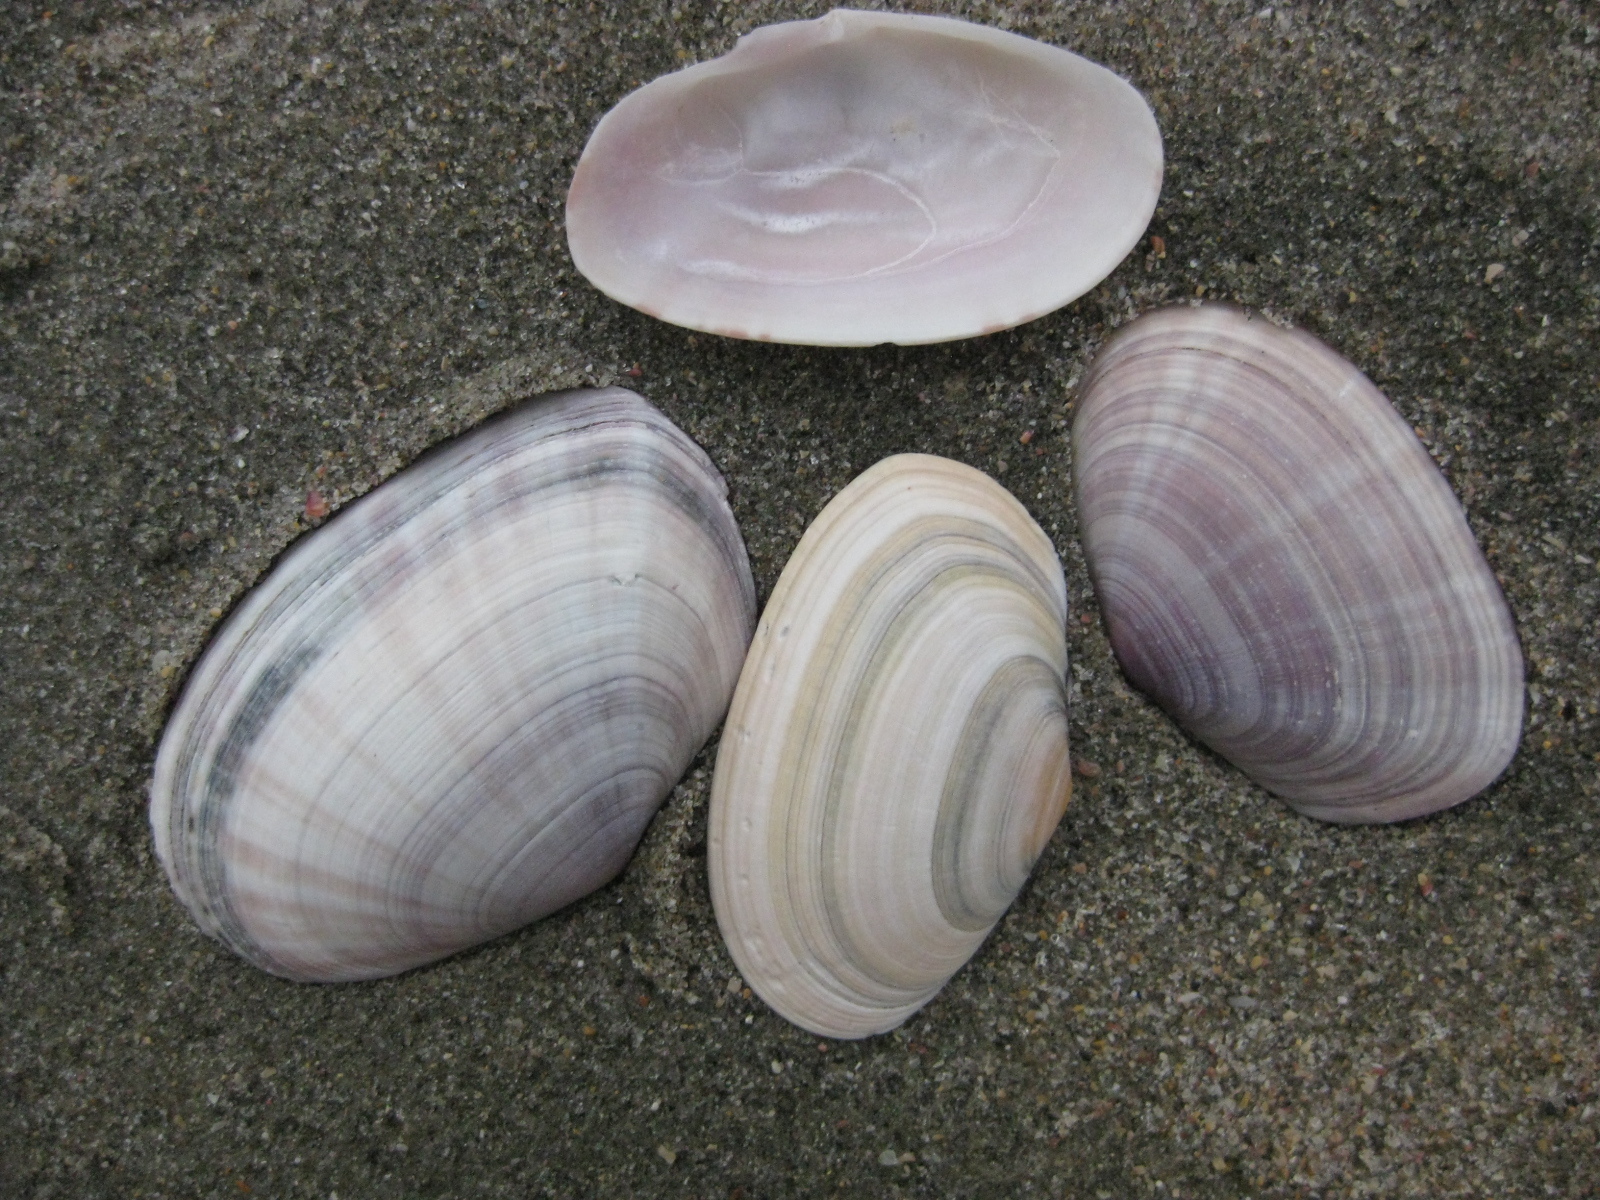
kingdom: Animalia
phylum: Mollusca
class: Bivalvia
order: Cardiida
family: Psammobiidae
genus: Gari
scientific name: Gari stangeri
